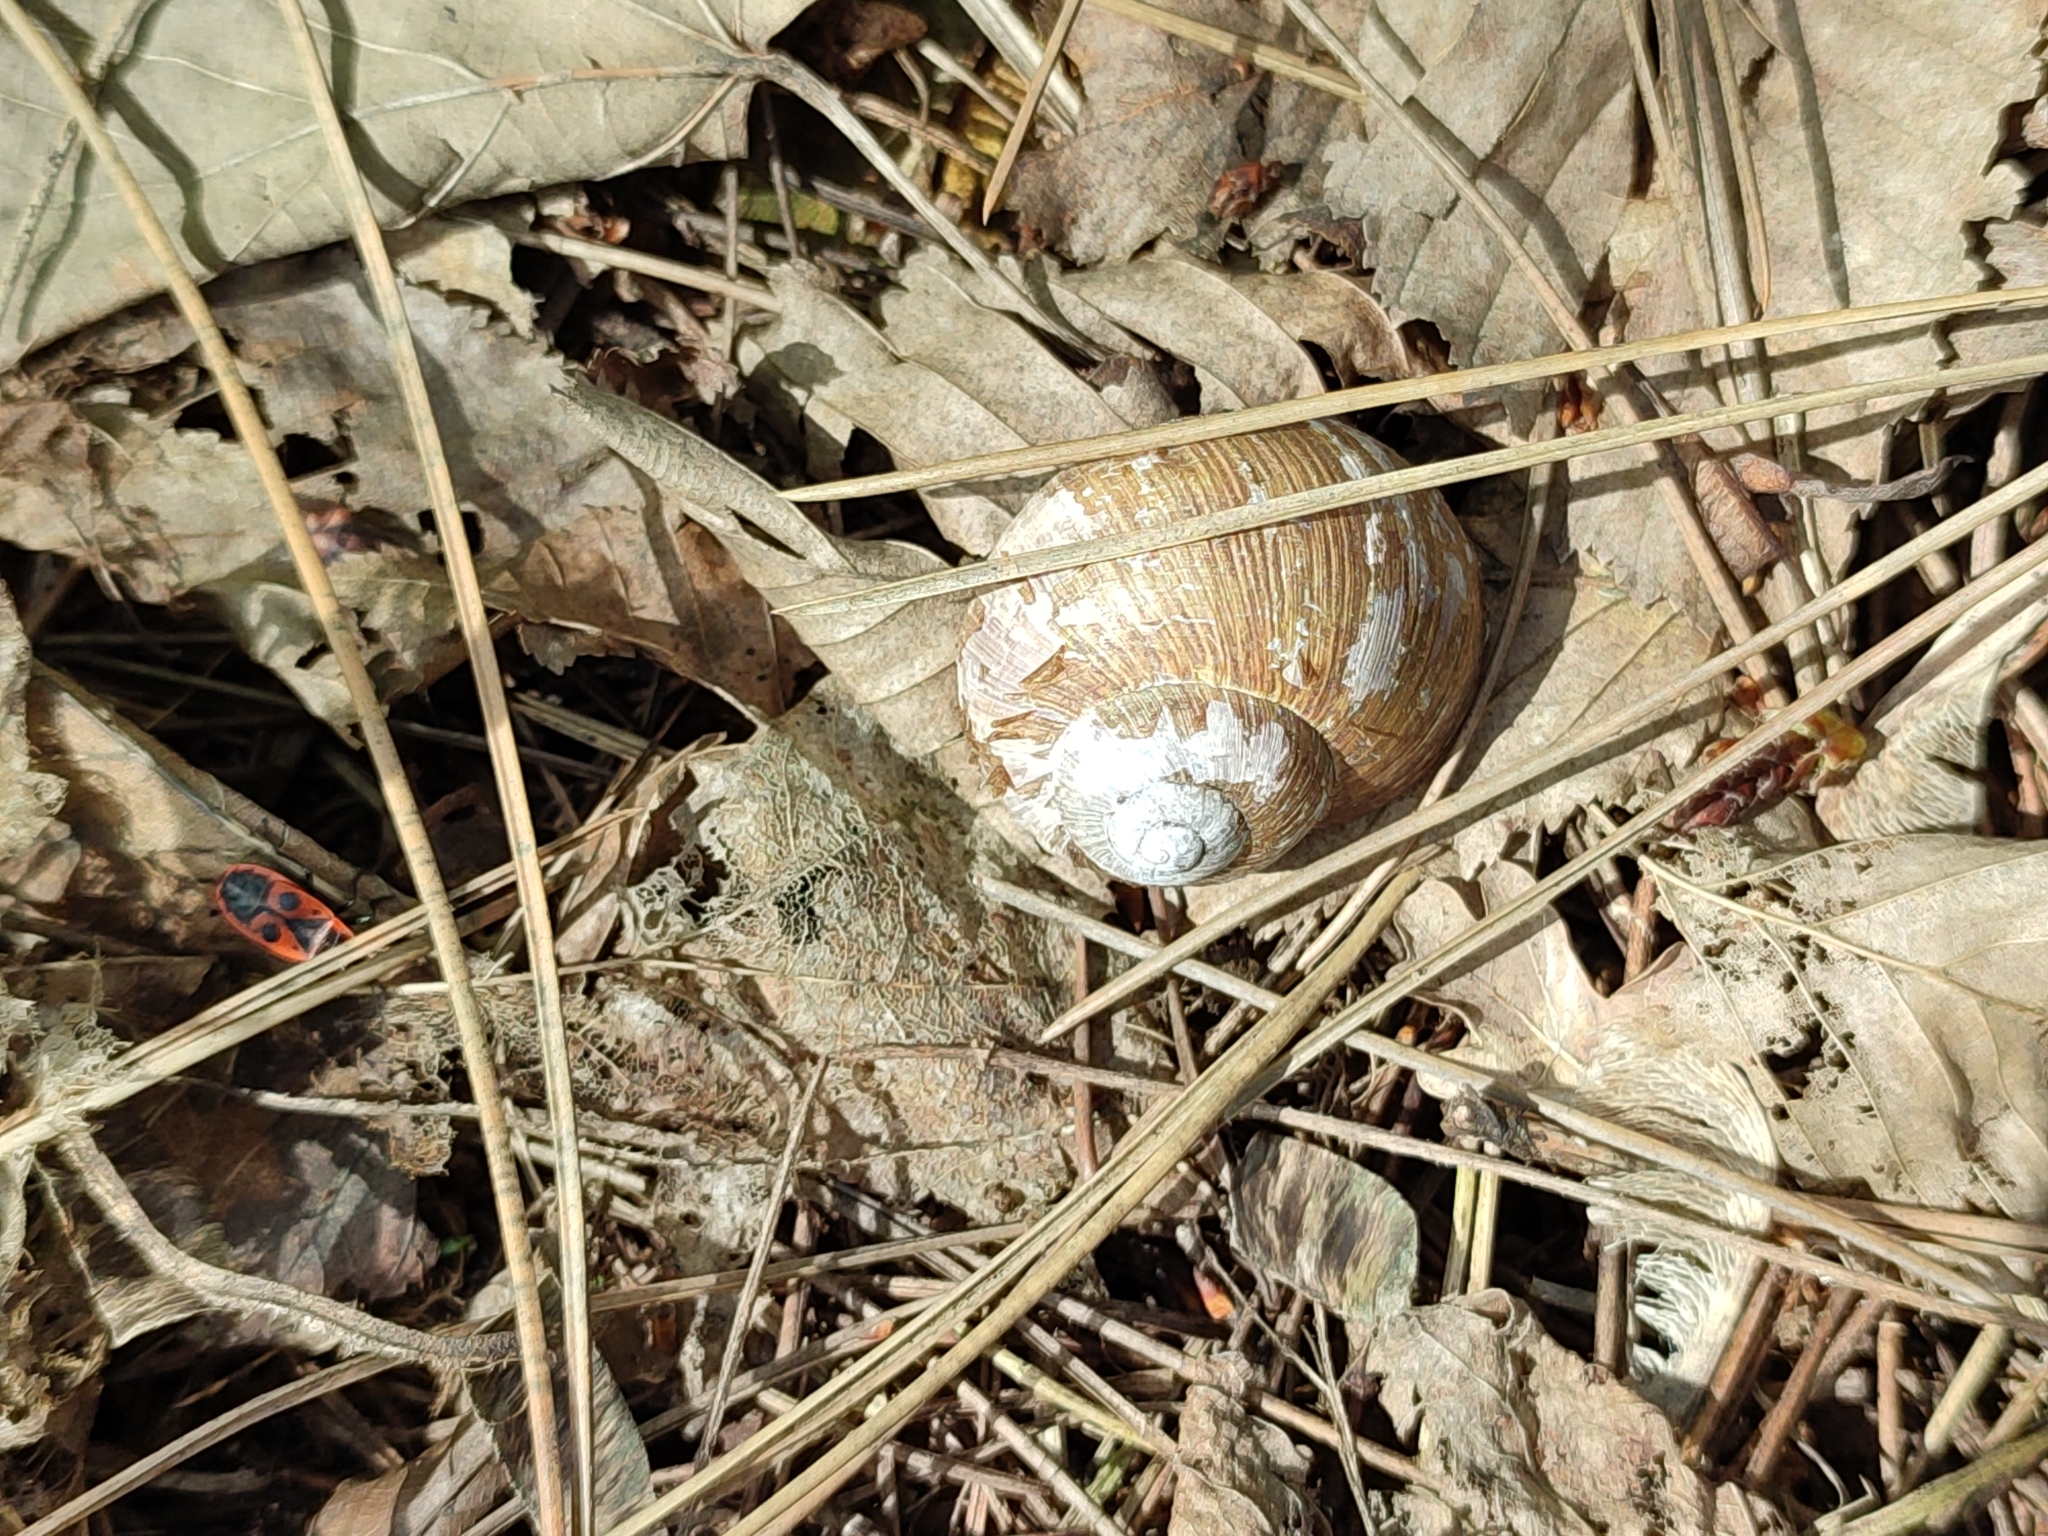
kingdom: Animalia
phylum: Mollusca
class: Gastropoda
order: Stylommatophora
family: Helicidae
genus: Helix
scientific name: Helix pomatia
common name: Roman snail
